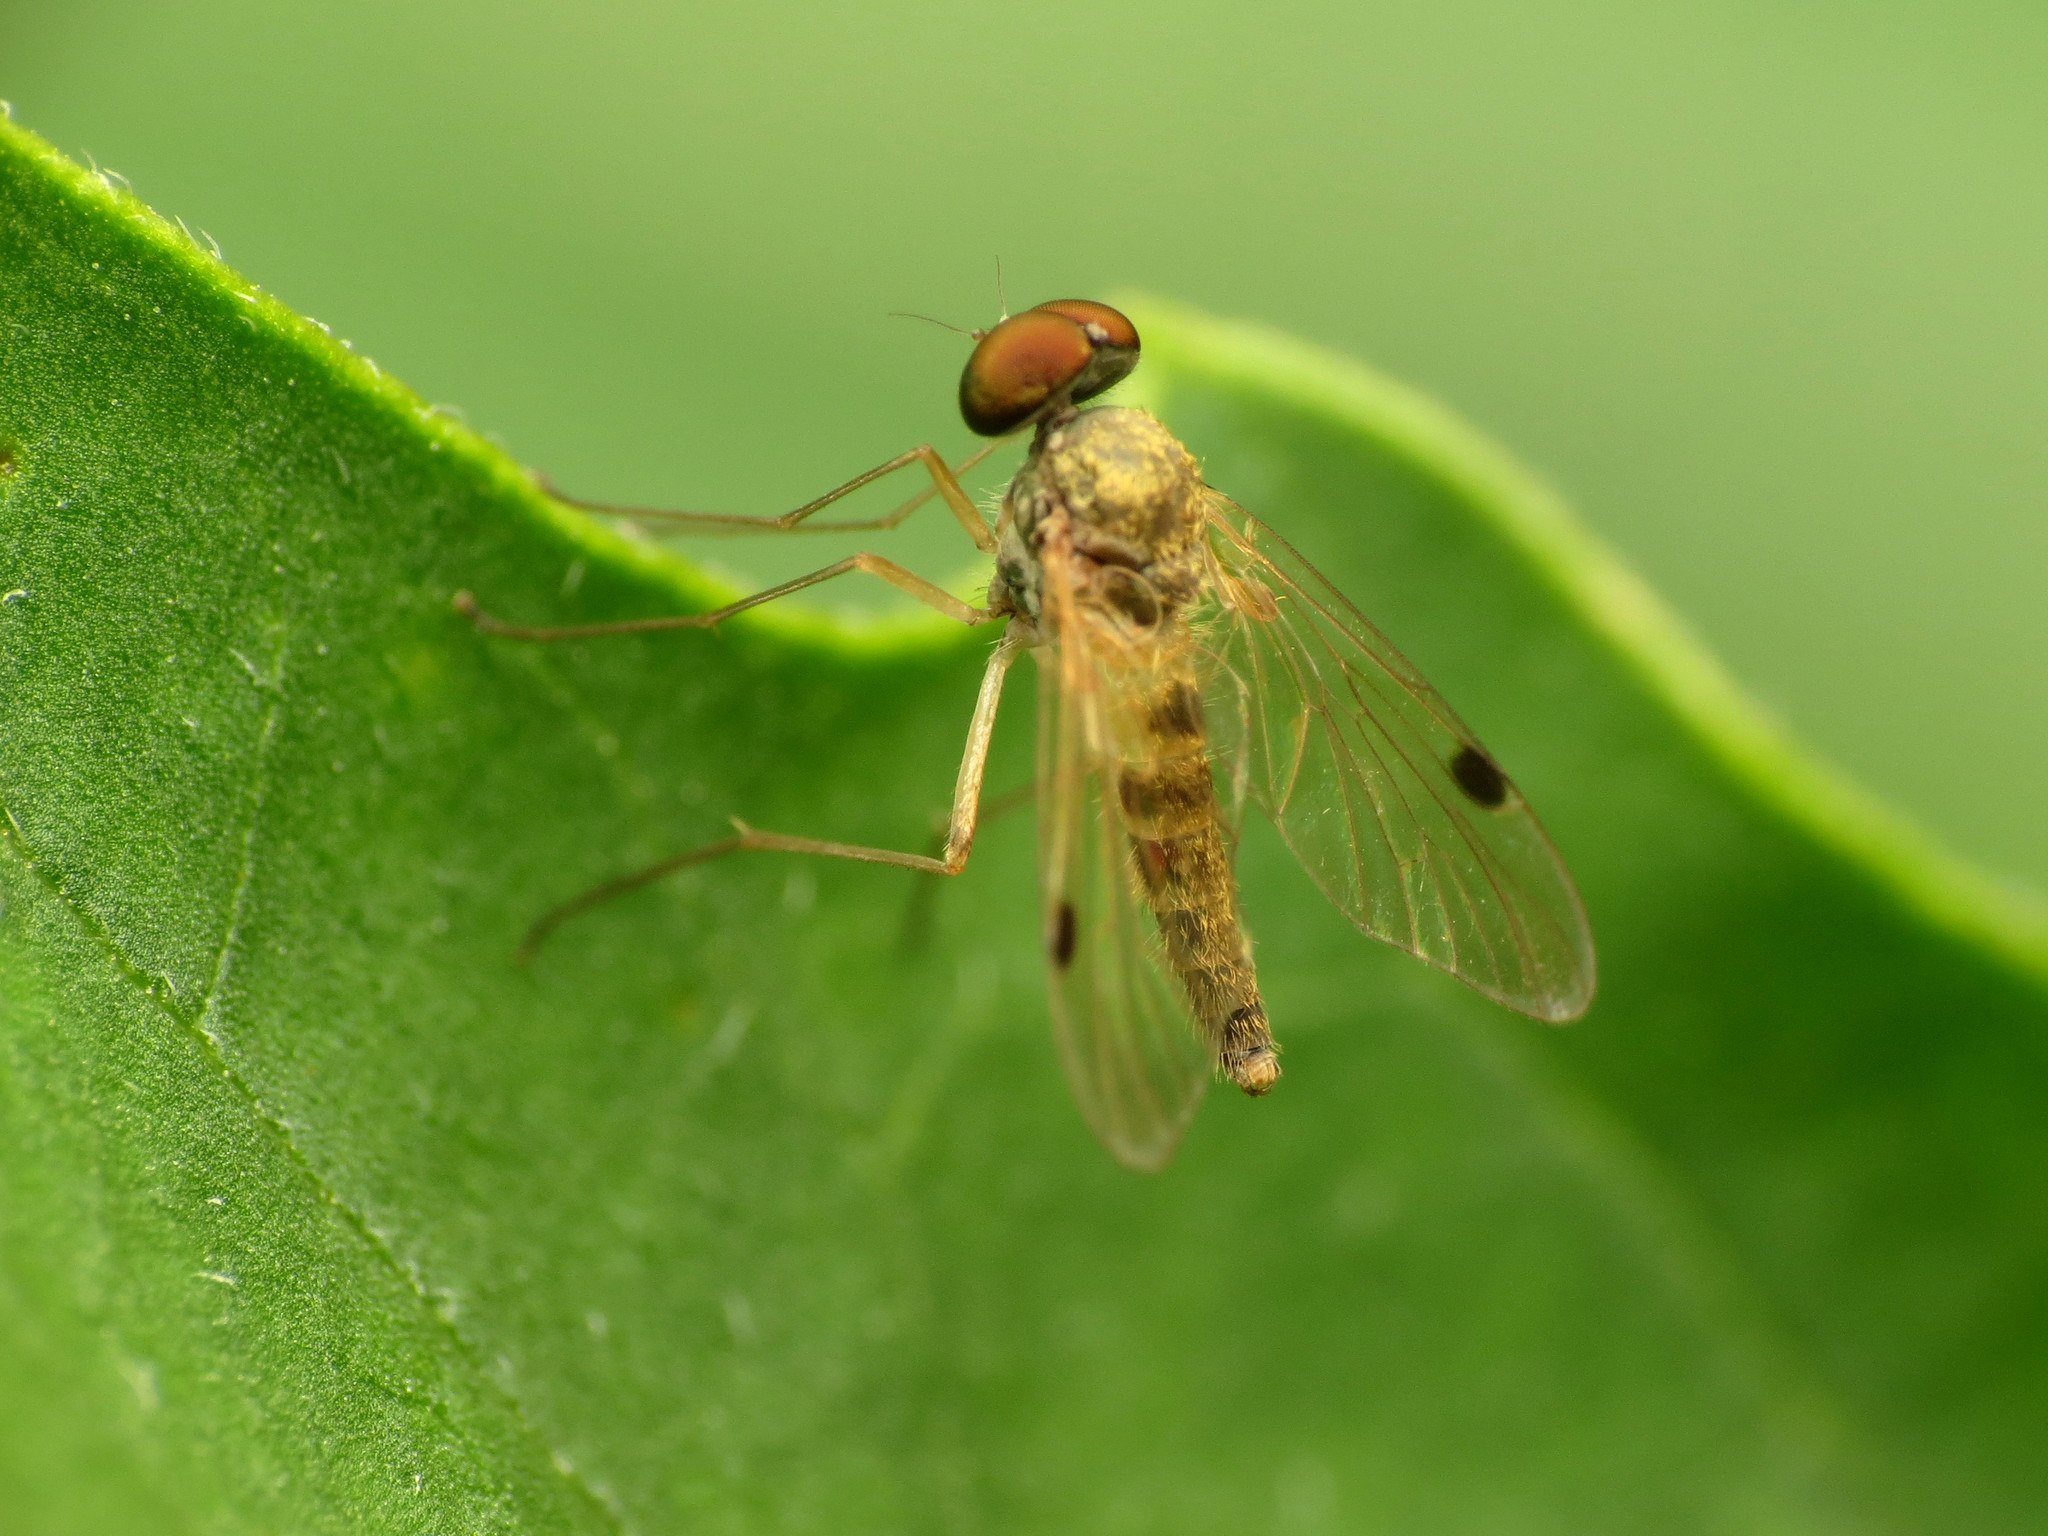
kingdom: Animalia
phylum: Arthropoda
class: Insecta
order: Diptera
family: Rhagionidae
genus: Chrysopilus
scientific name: Chrysopilus modestus
